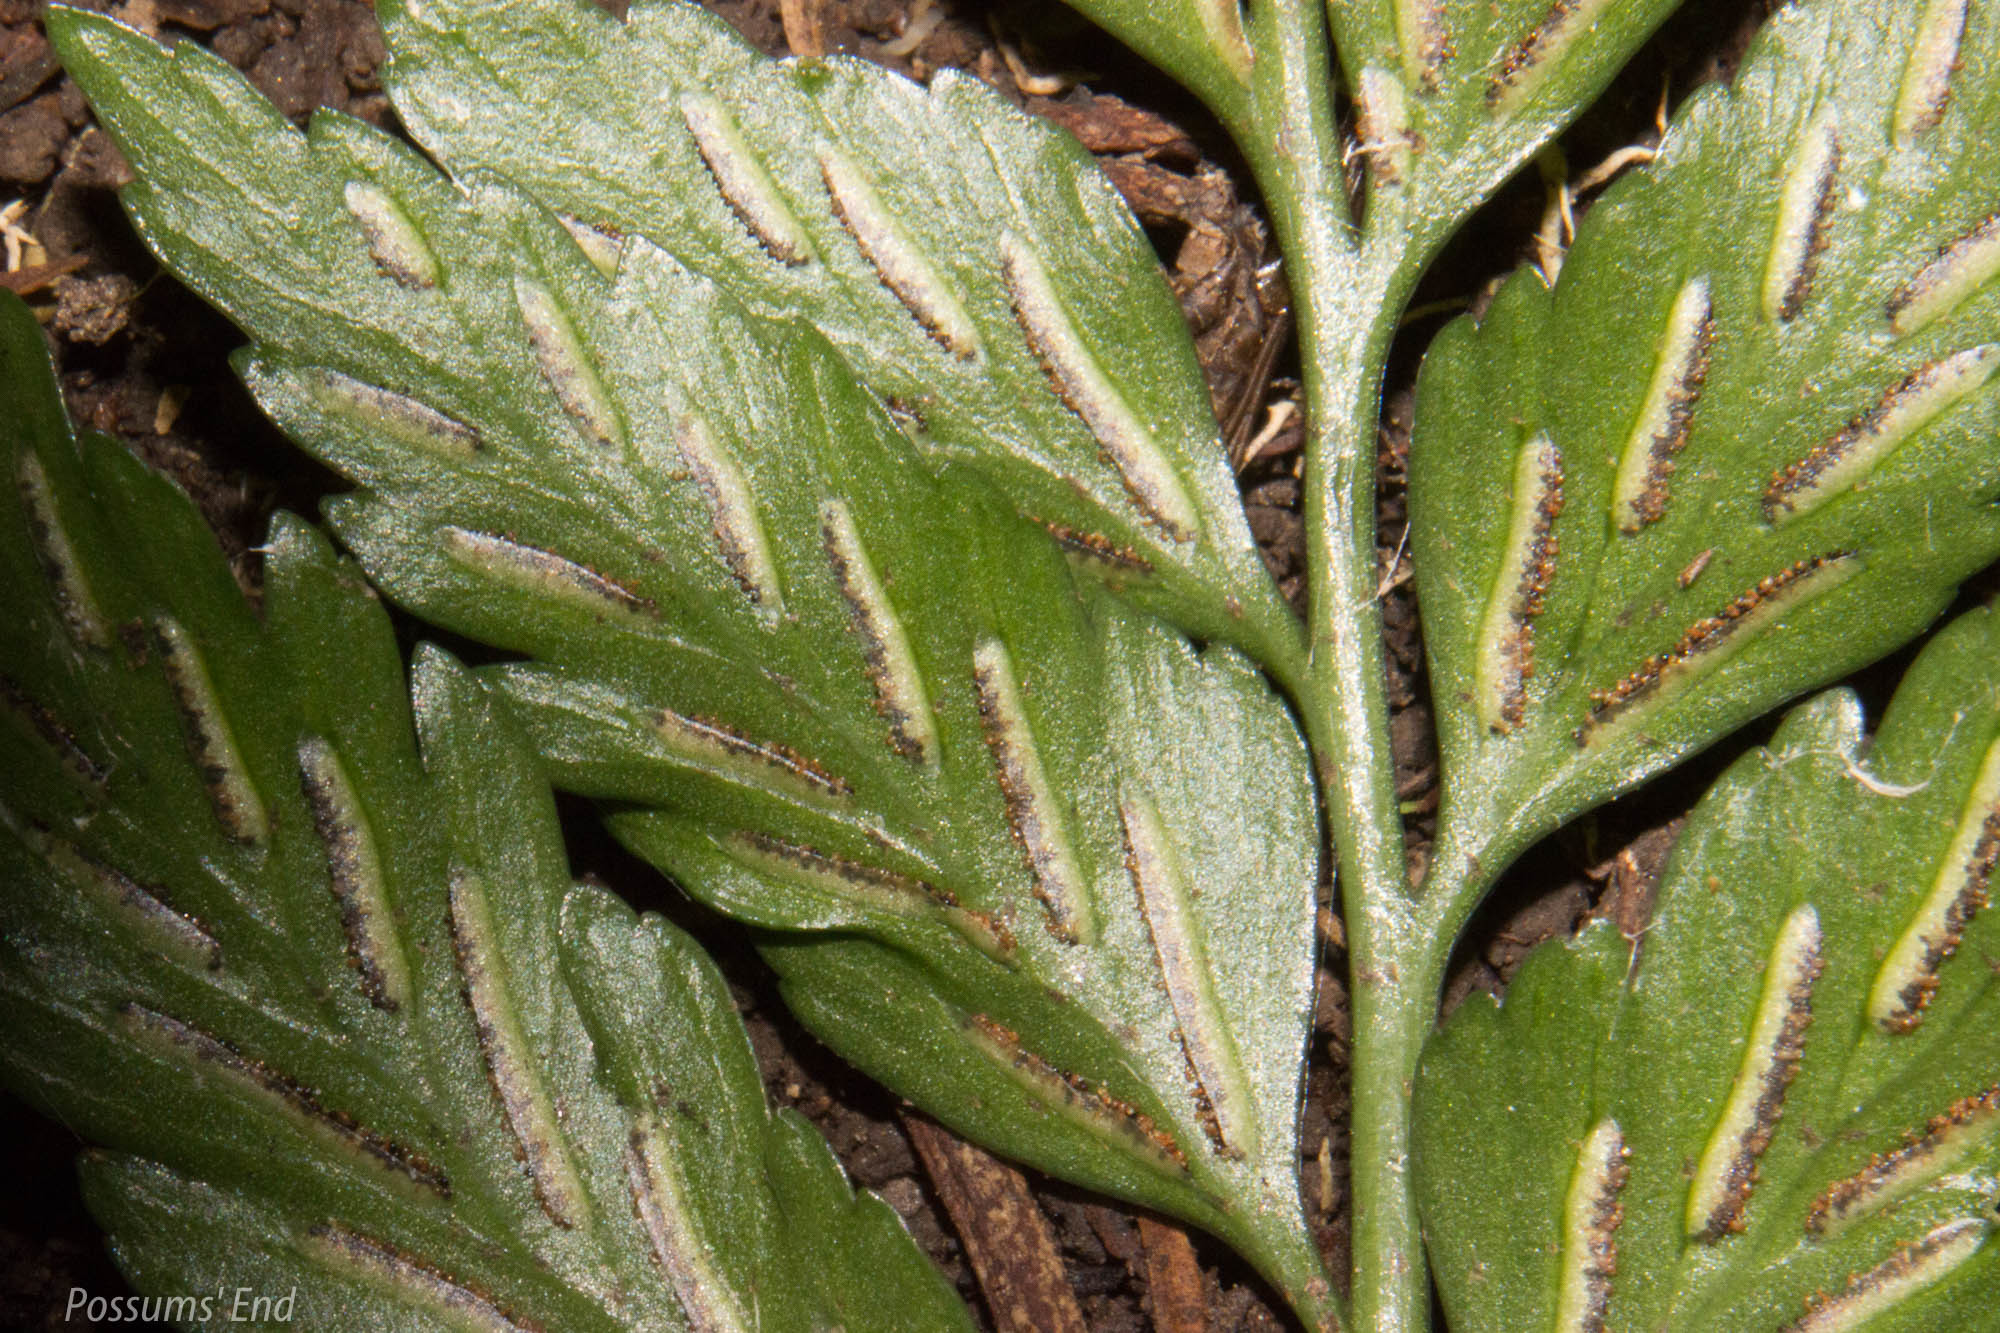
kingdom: Plantae
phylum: Tracheophyta
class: Polypodiopsida
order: Polypodiales
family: Aspleniaceae
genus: Asplenium
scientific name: Asplenium lyallii
